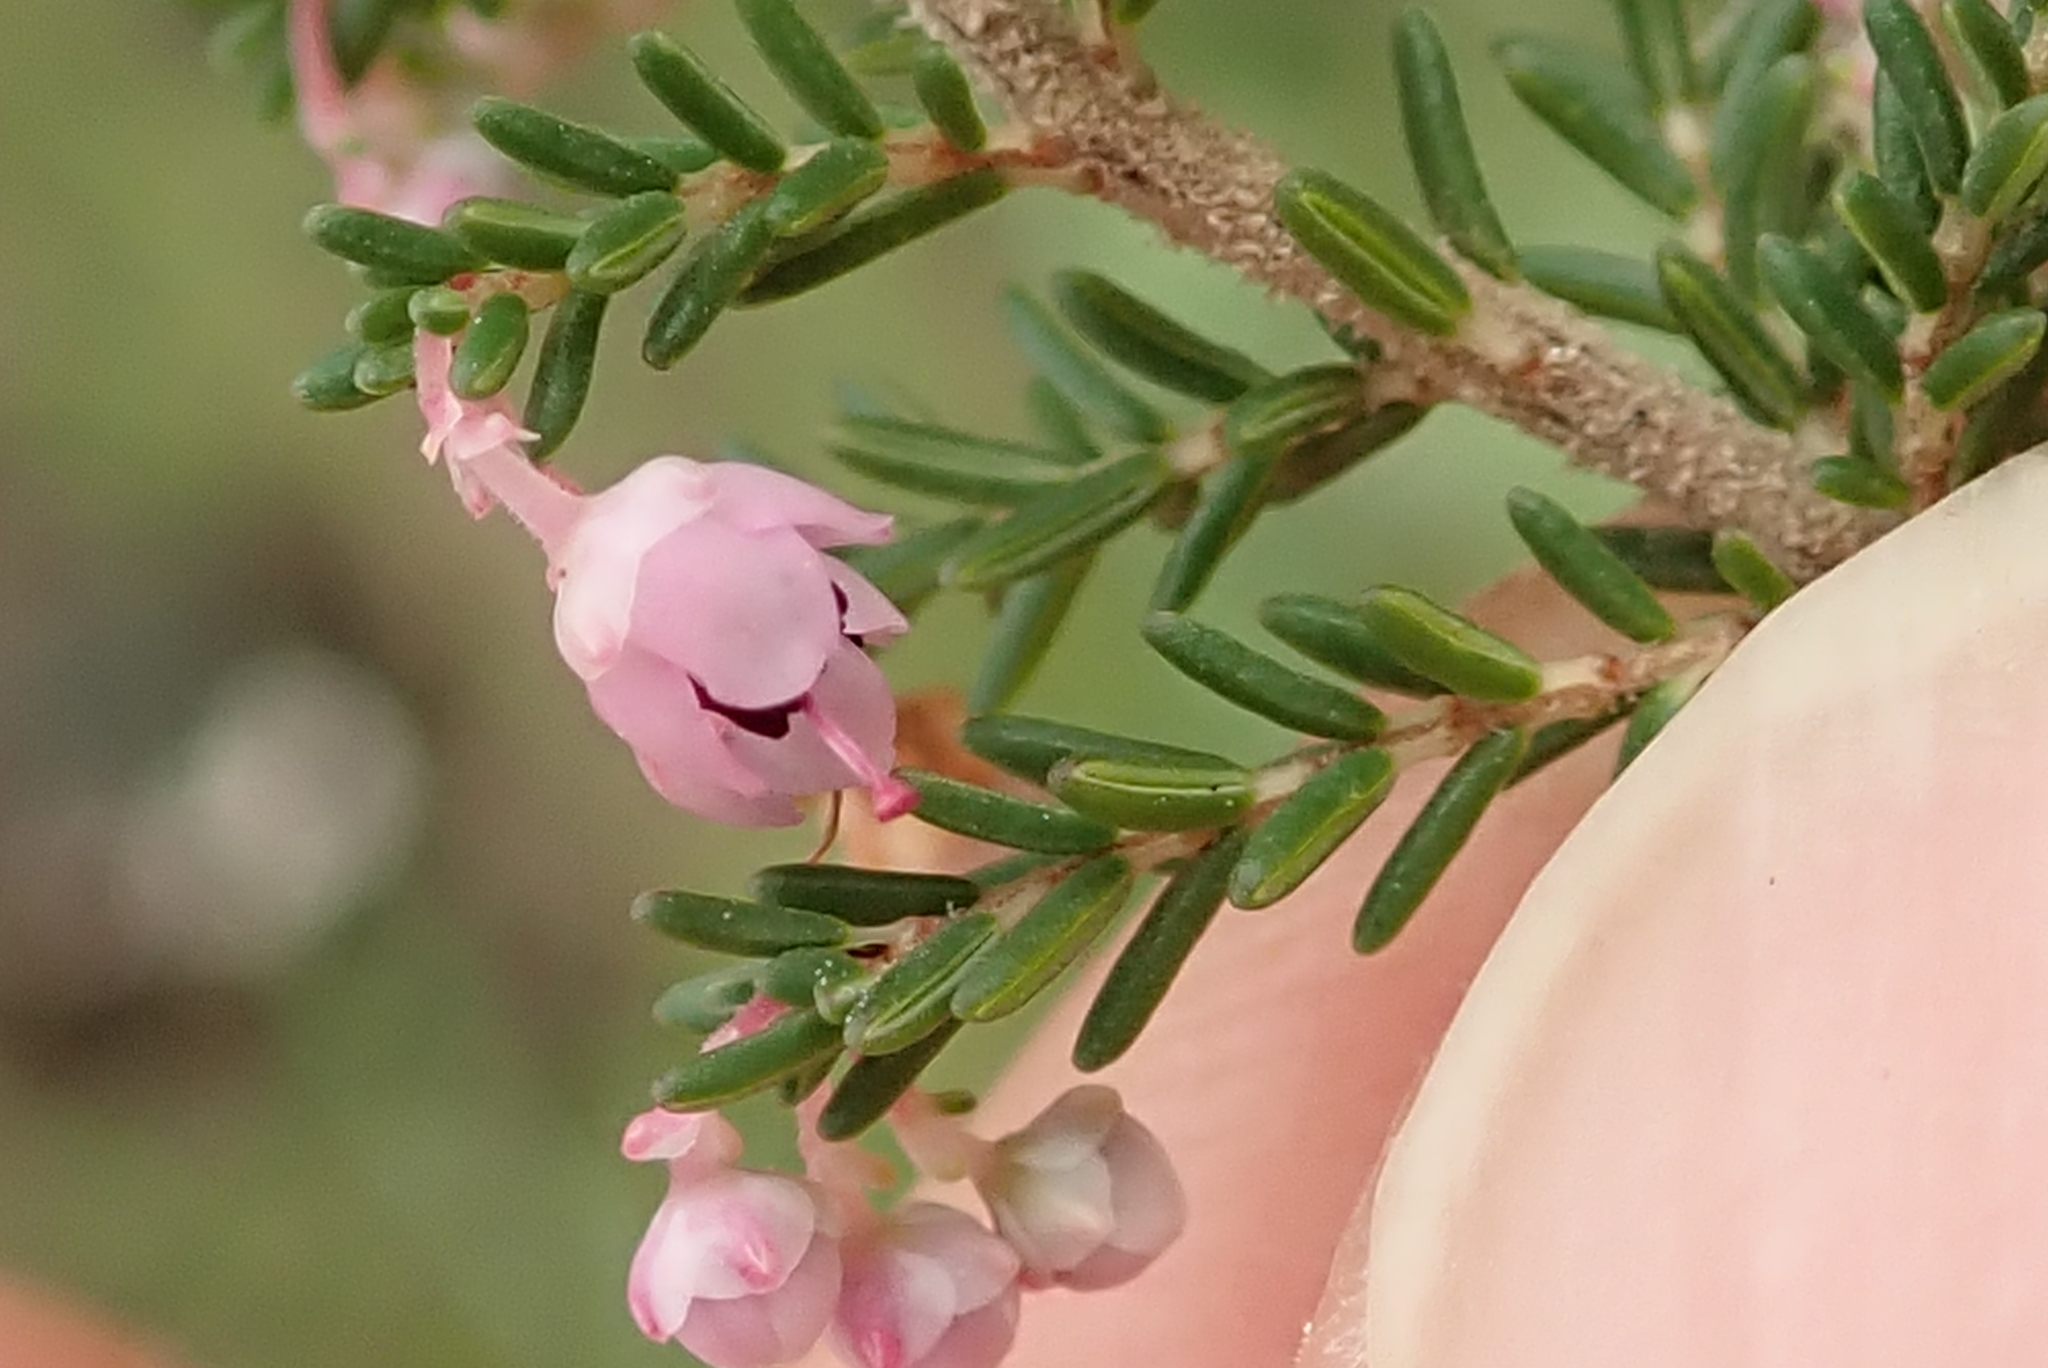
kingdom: Plantae
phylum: Tracheophyta
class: Magnoliopsida
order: Ericales
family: Ericaceae
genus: Erica
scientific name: Erica sparsa
